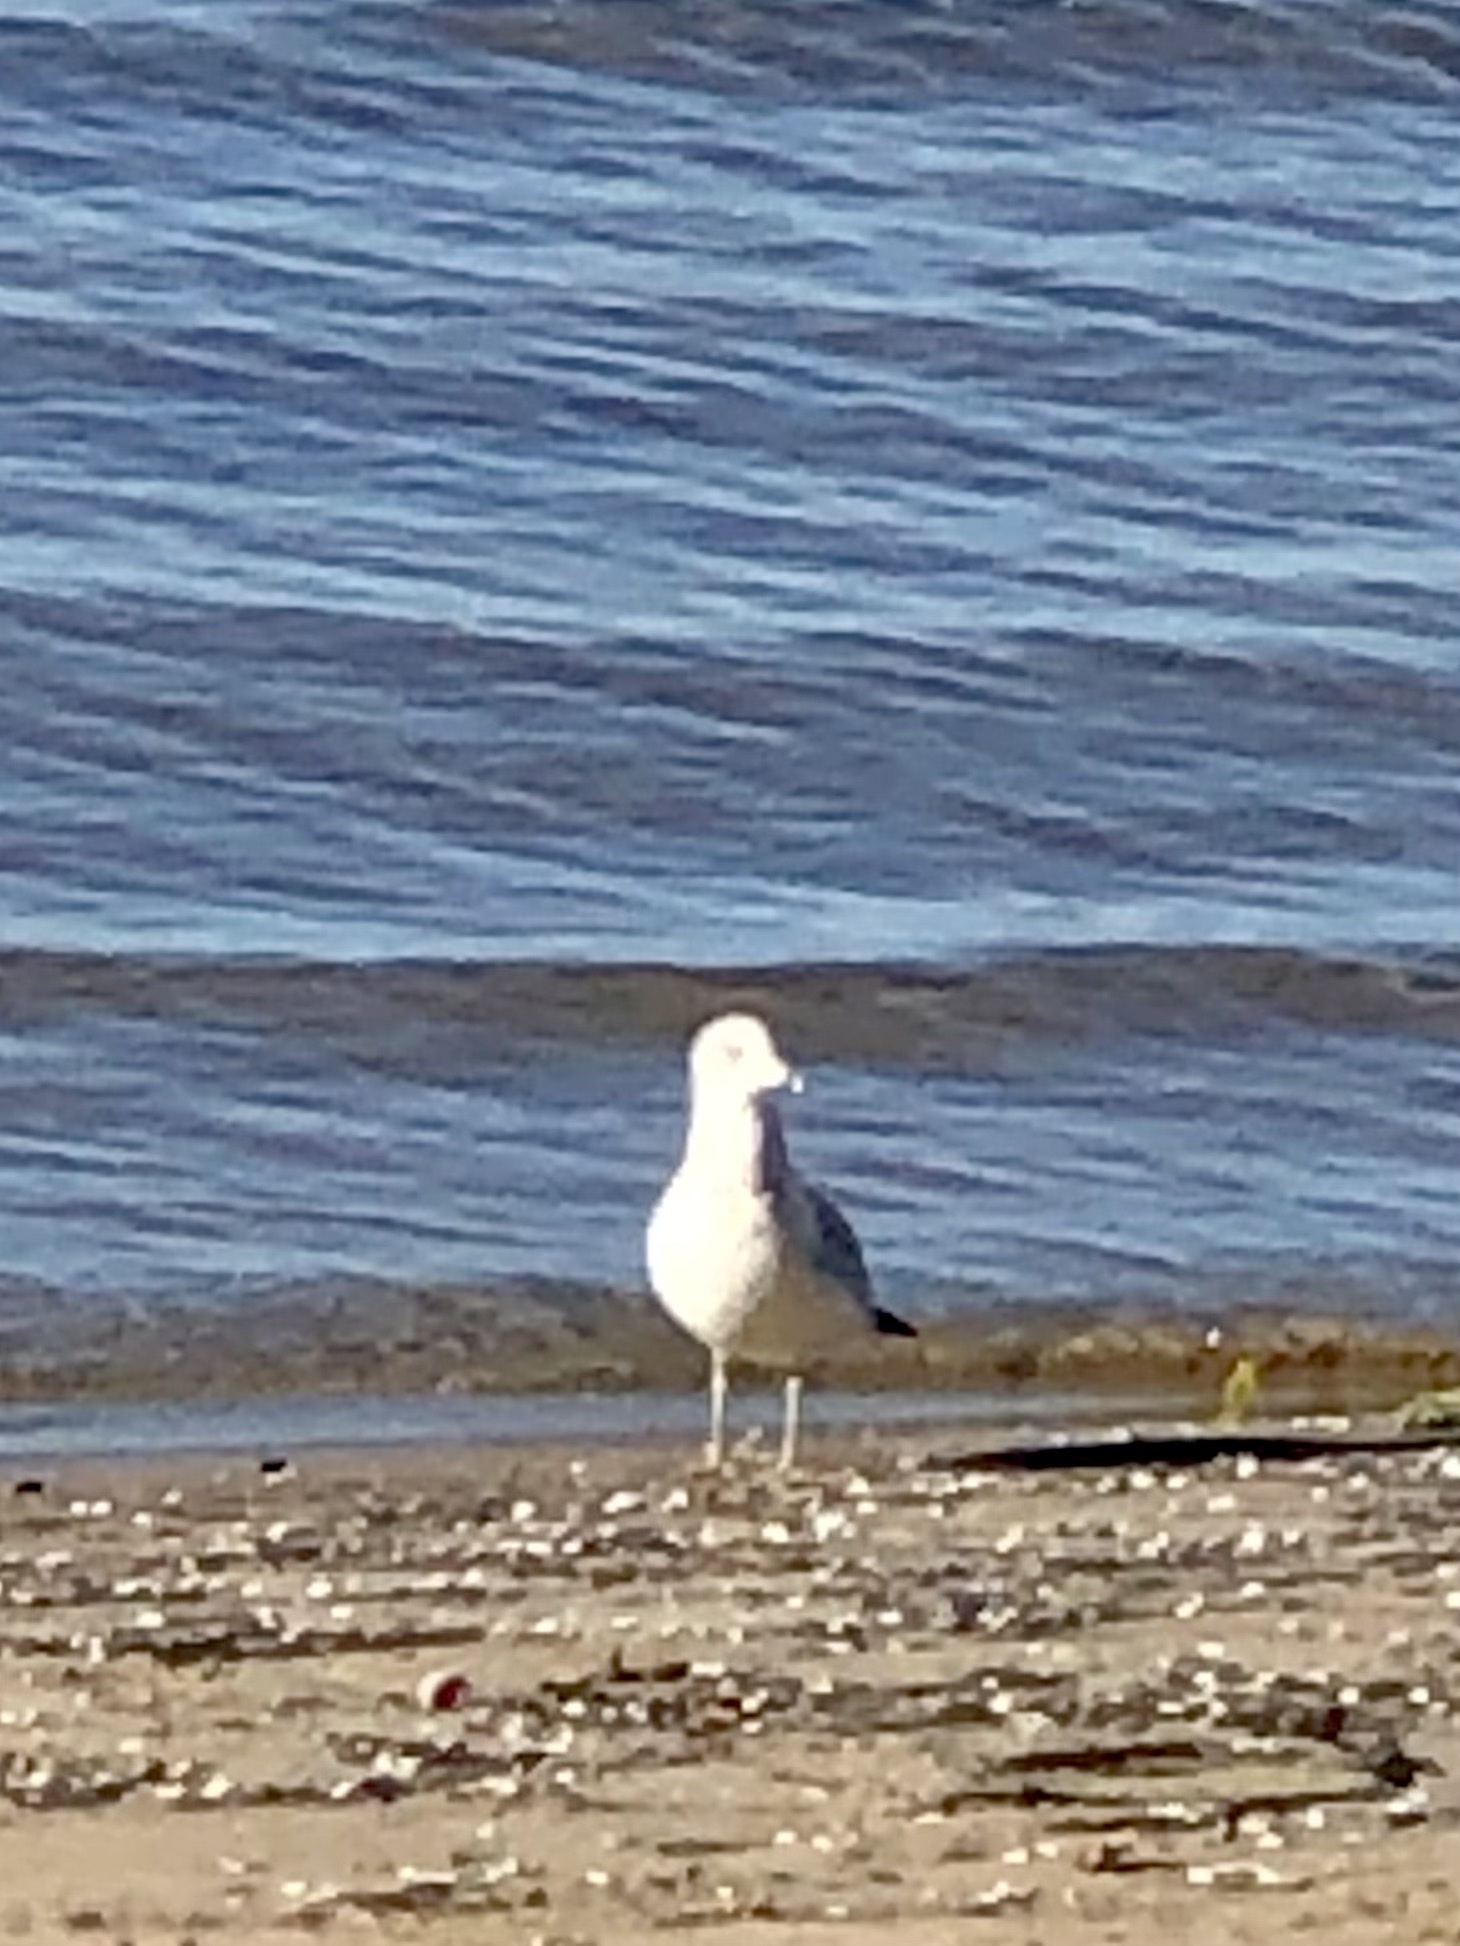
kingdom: Animalia
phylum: Chordata
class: Aves
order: Charadriiformes
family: Laridae
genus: Larus
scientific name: Larus delawarensis
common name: Ring-billed gull
